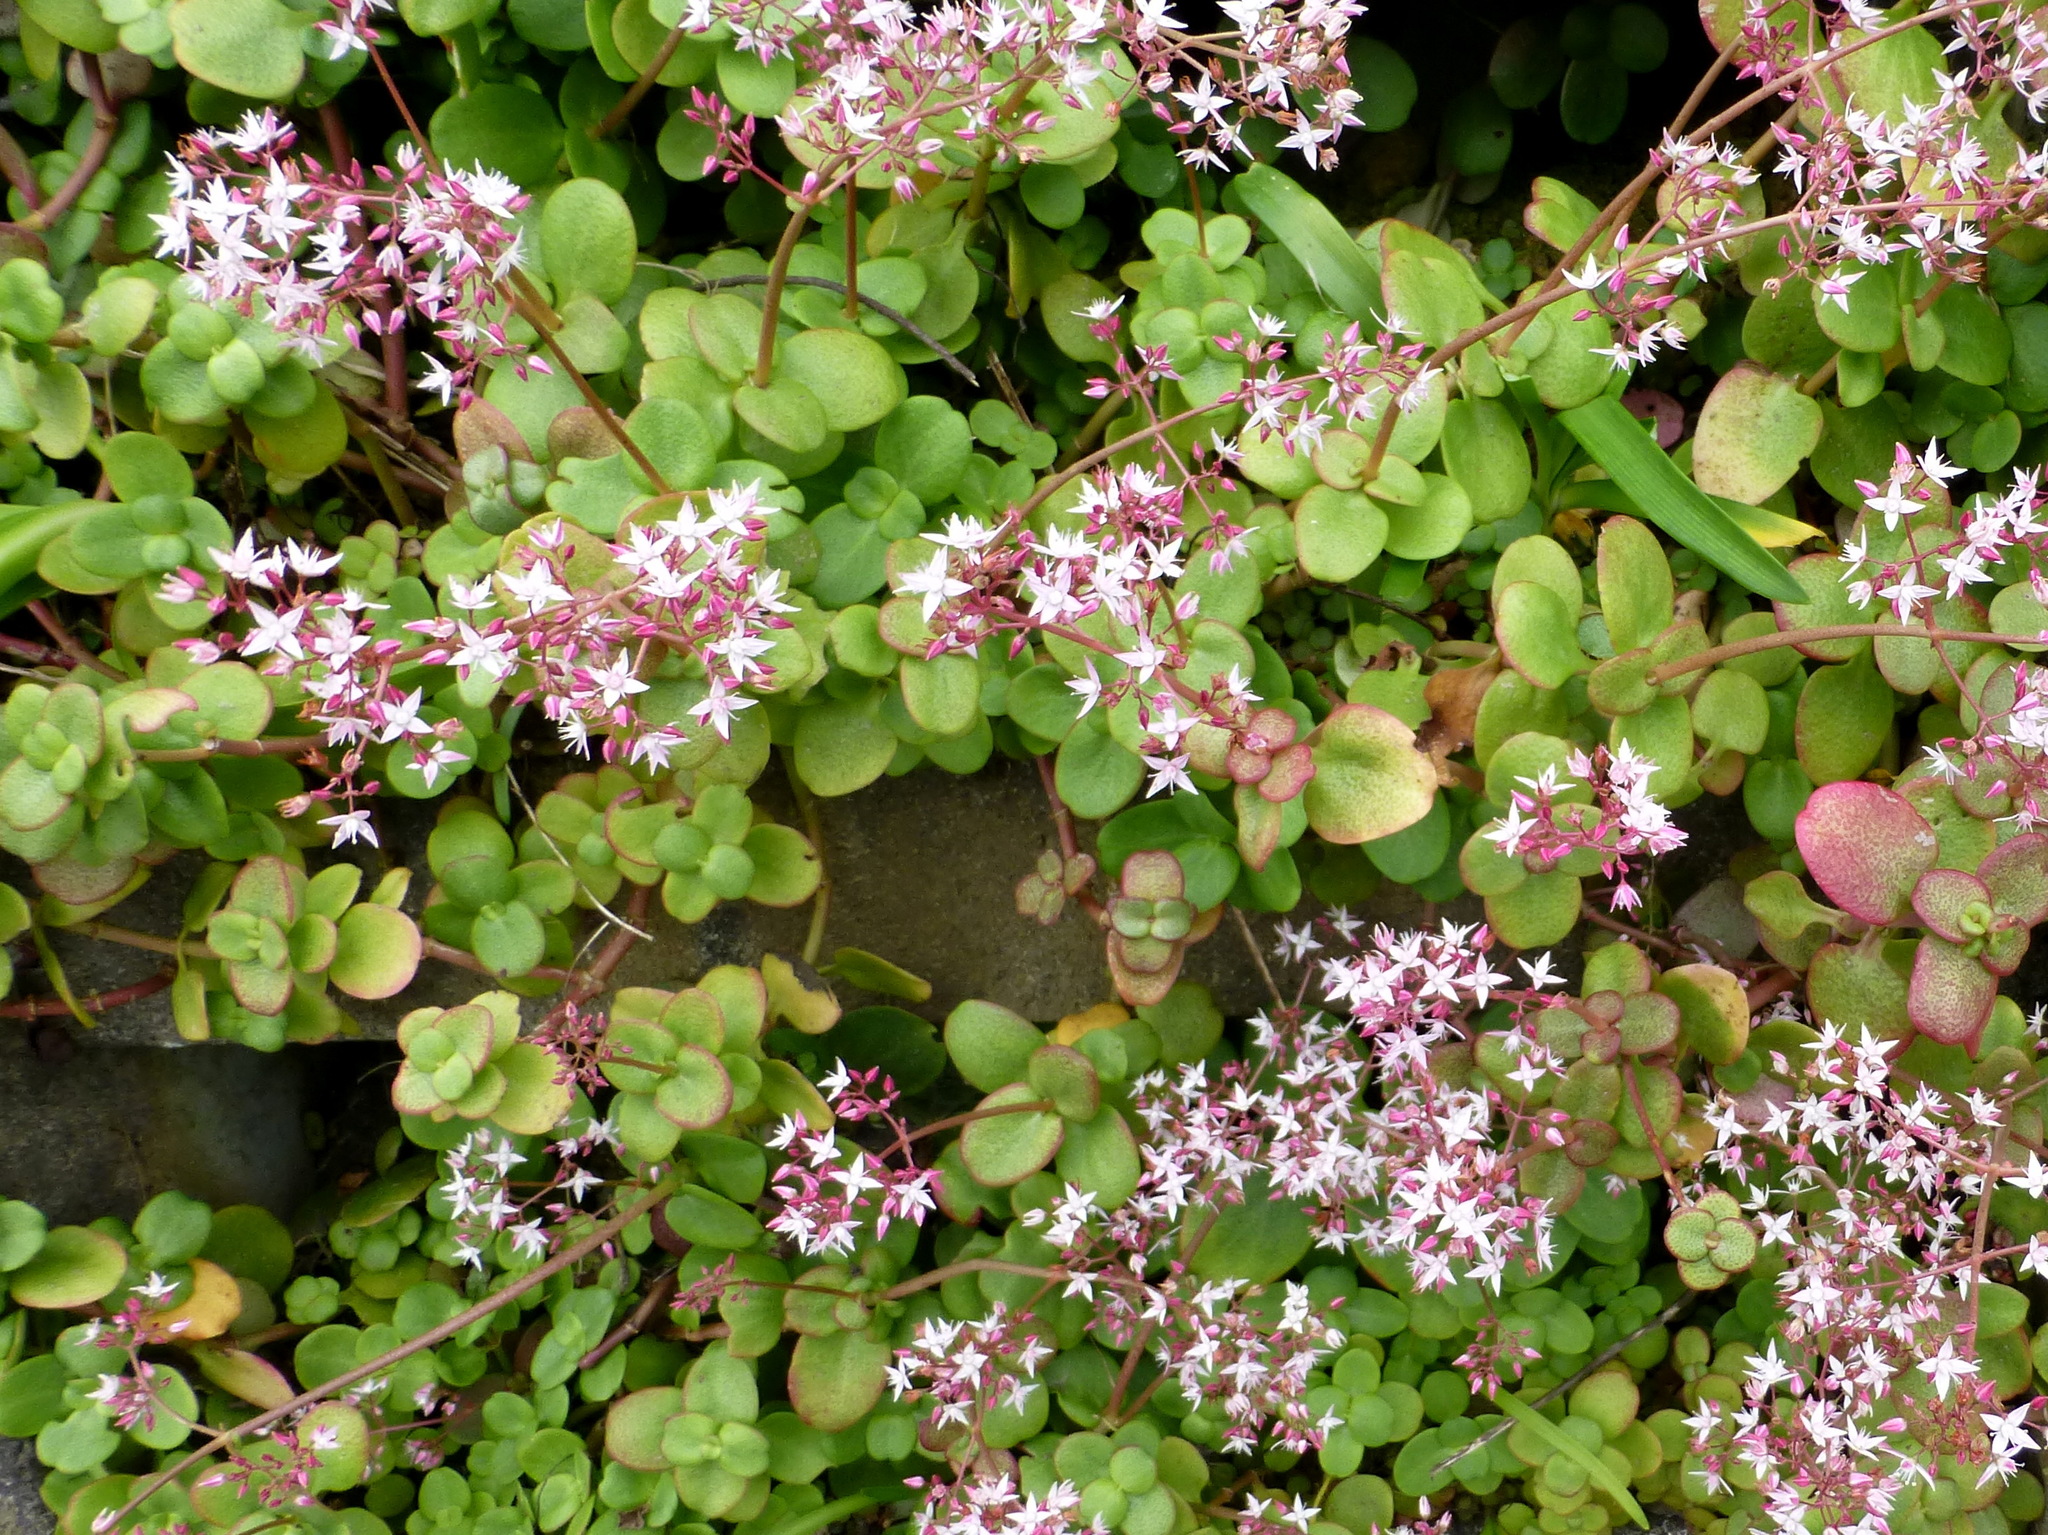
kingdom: Plantae
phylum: Tracheophyta
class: Magnoliopsida
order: Saxifragales
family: Crassulaceae
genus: Crassula
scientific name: Crassula multicava
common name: Cape province pygmyweed
